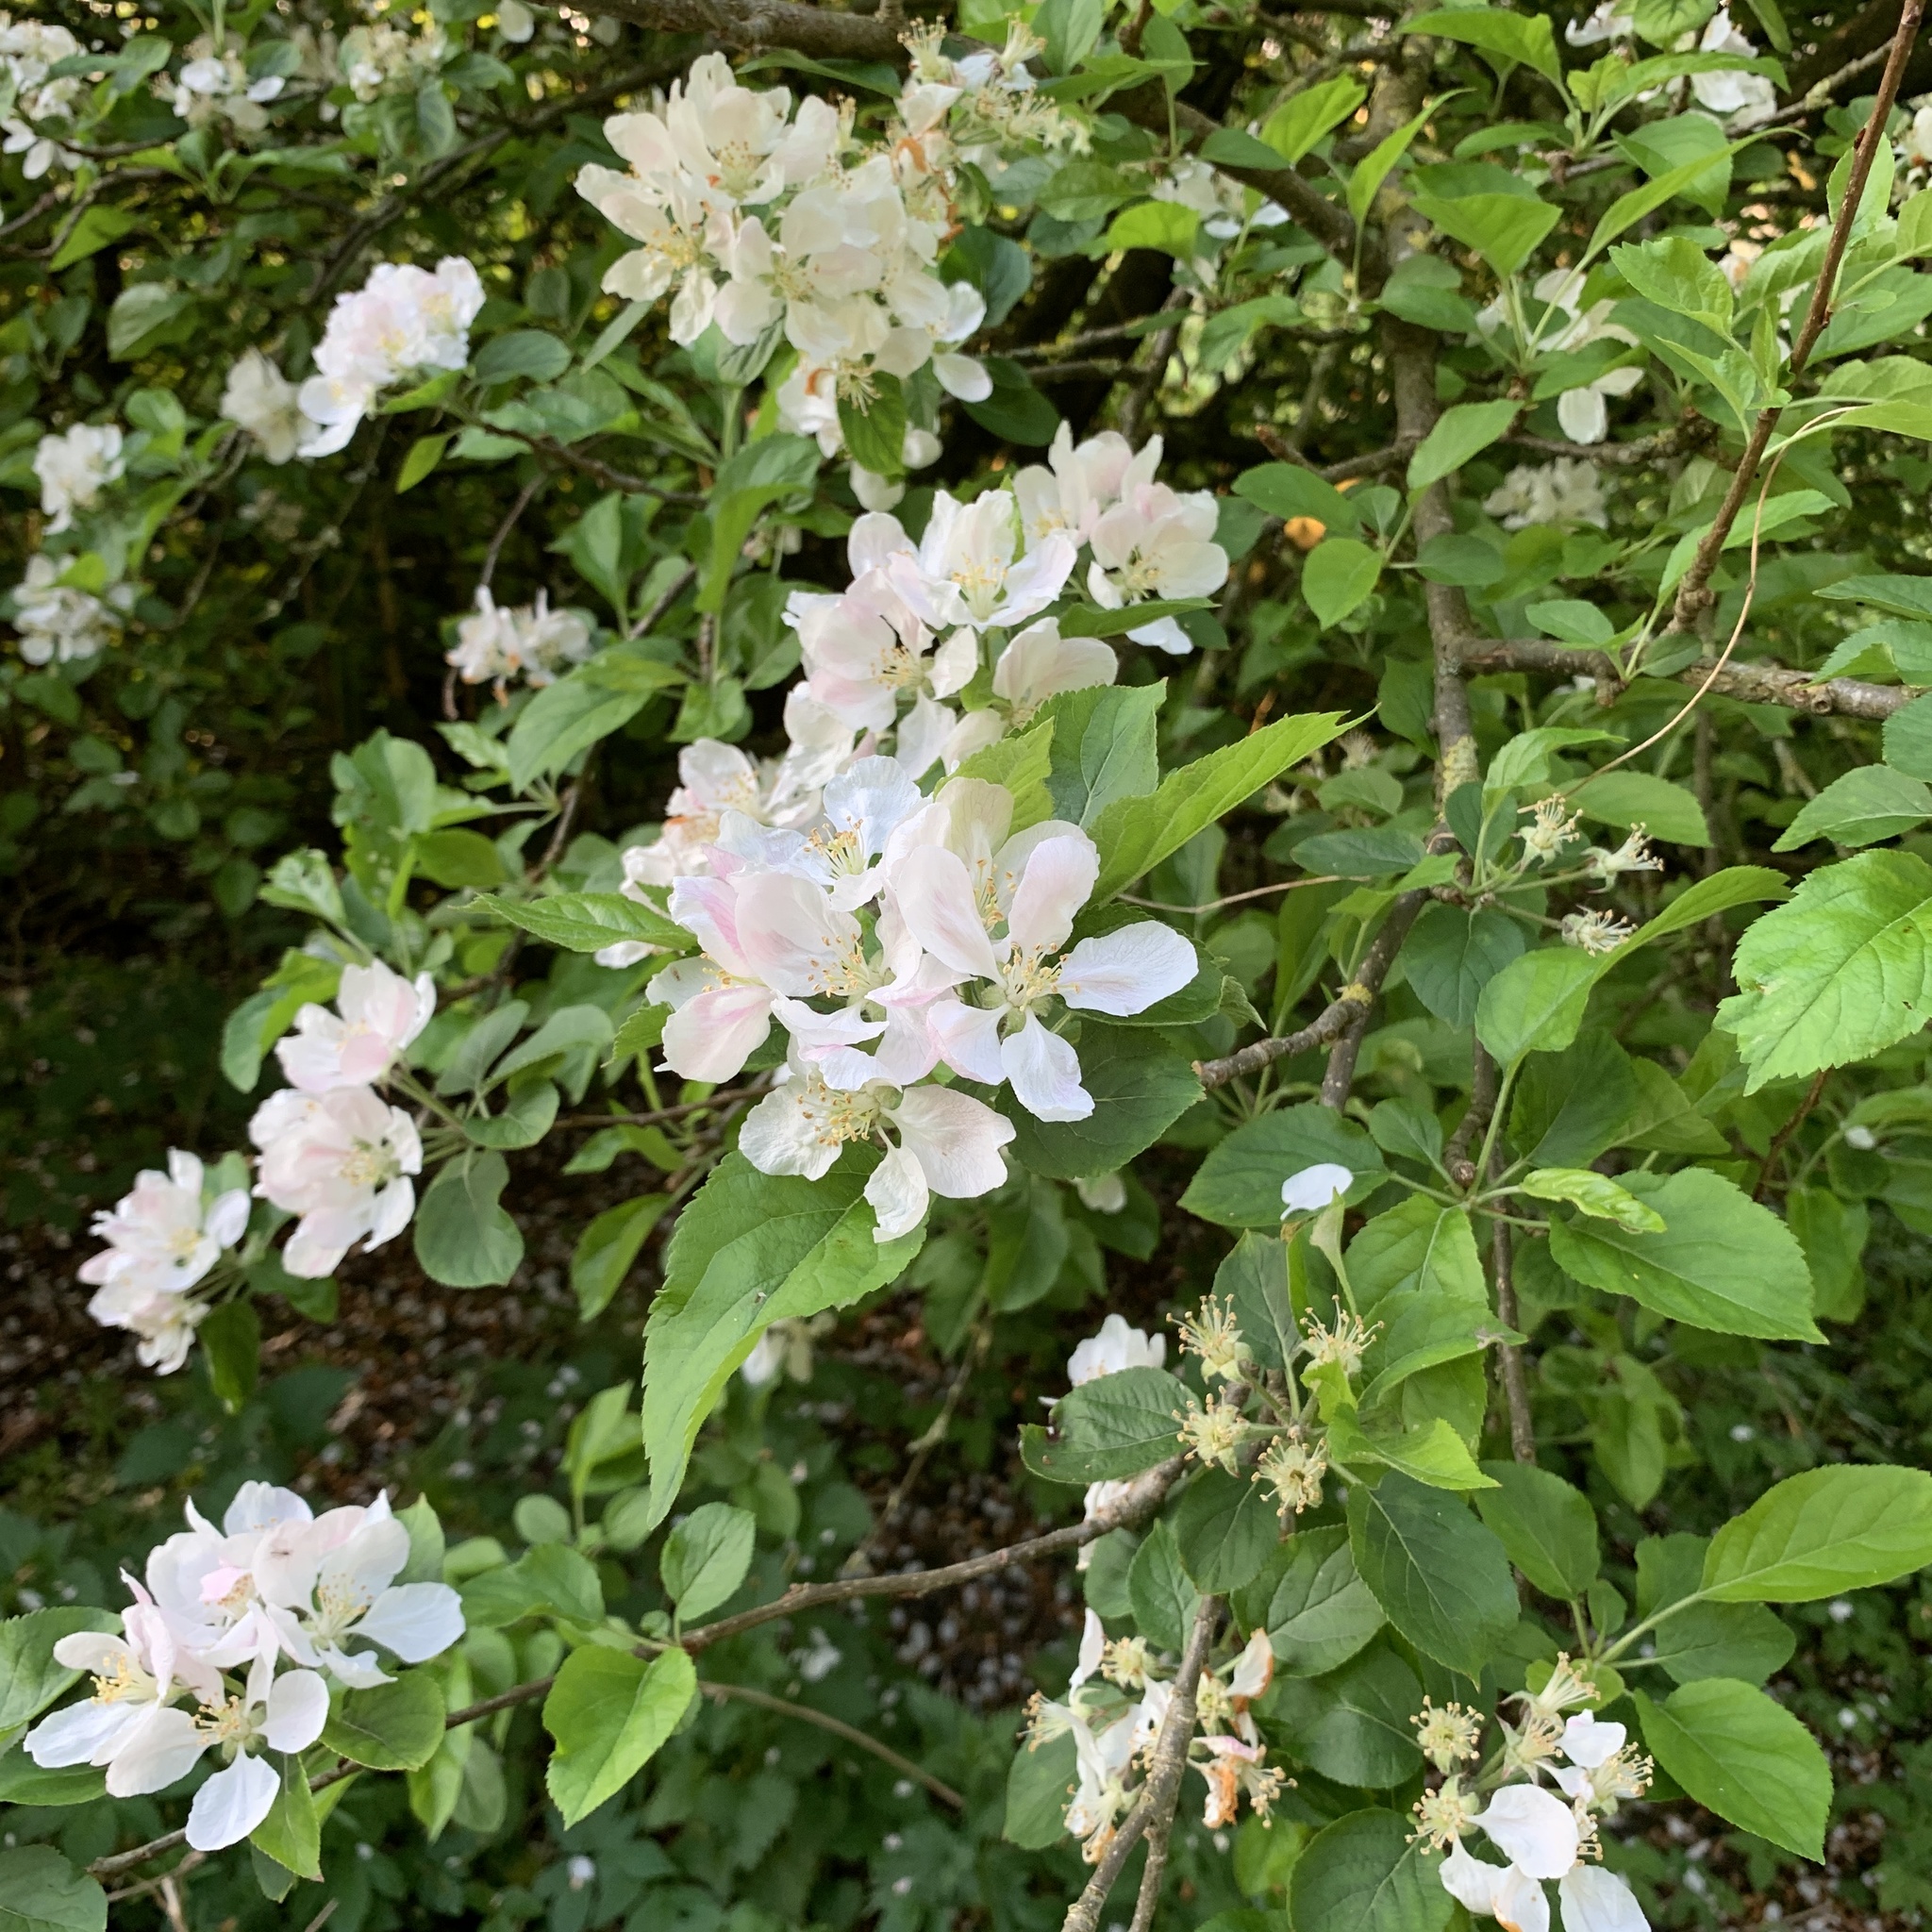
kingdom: Plantae
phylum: Tracheophyta
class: Magnoliopsida
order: Rosales
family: Rosaceae
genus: Malus
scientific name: Malus domestica
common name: Apple
